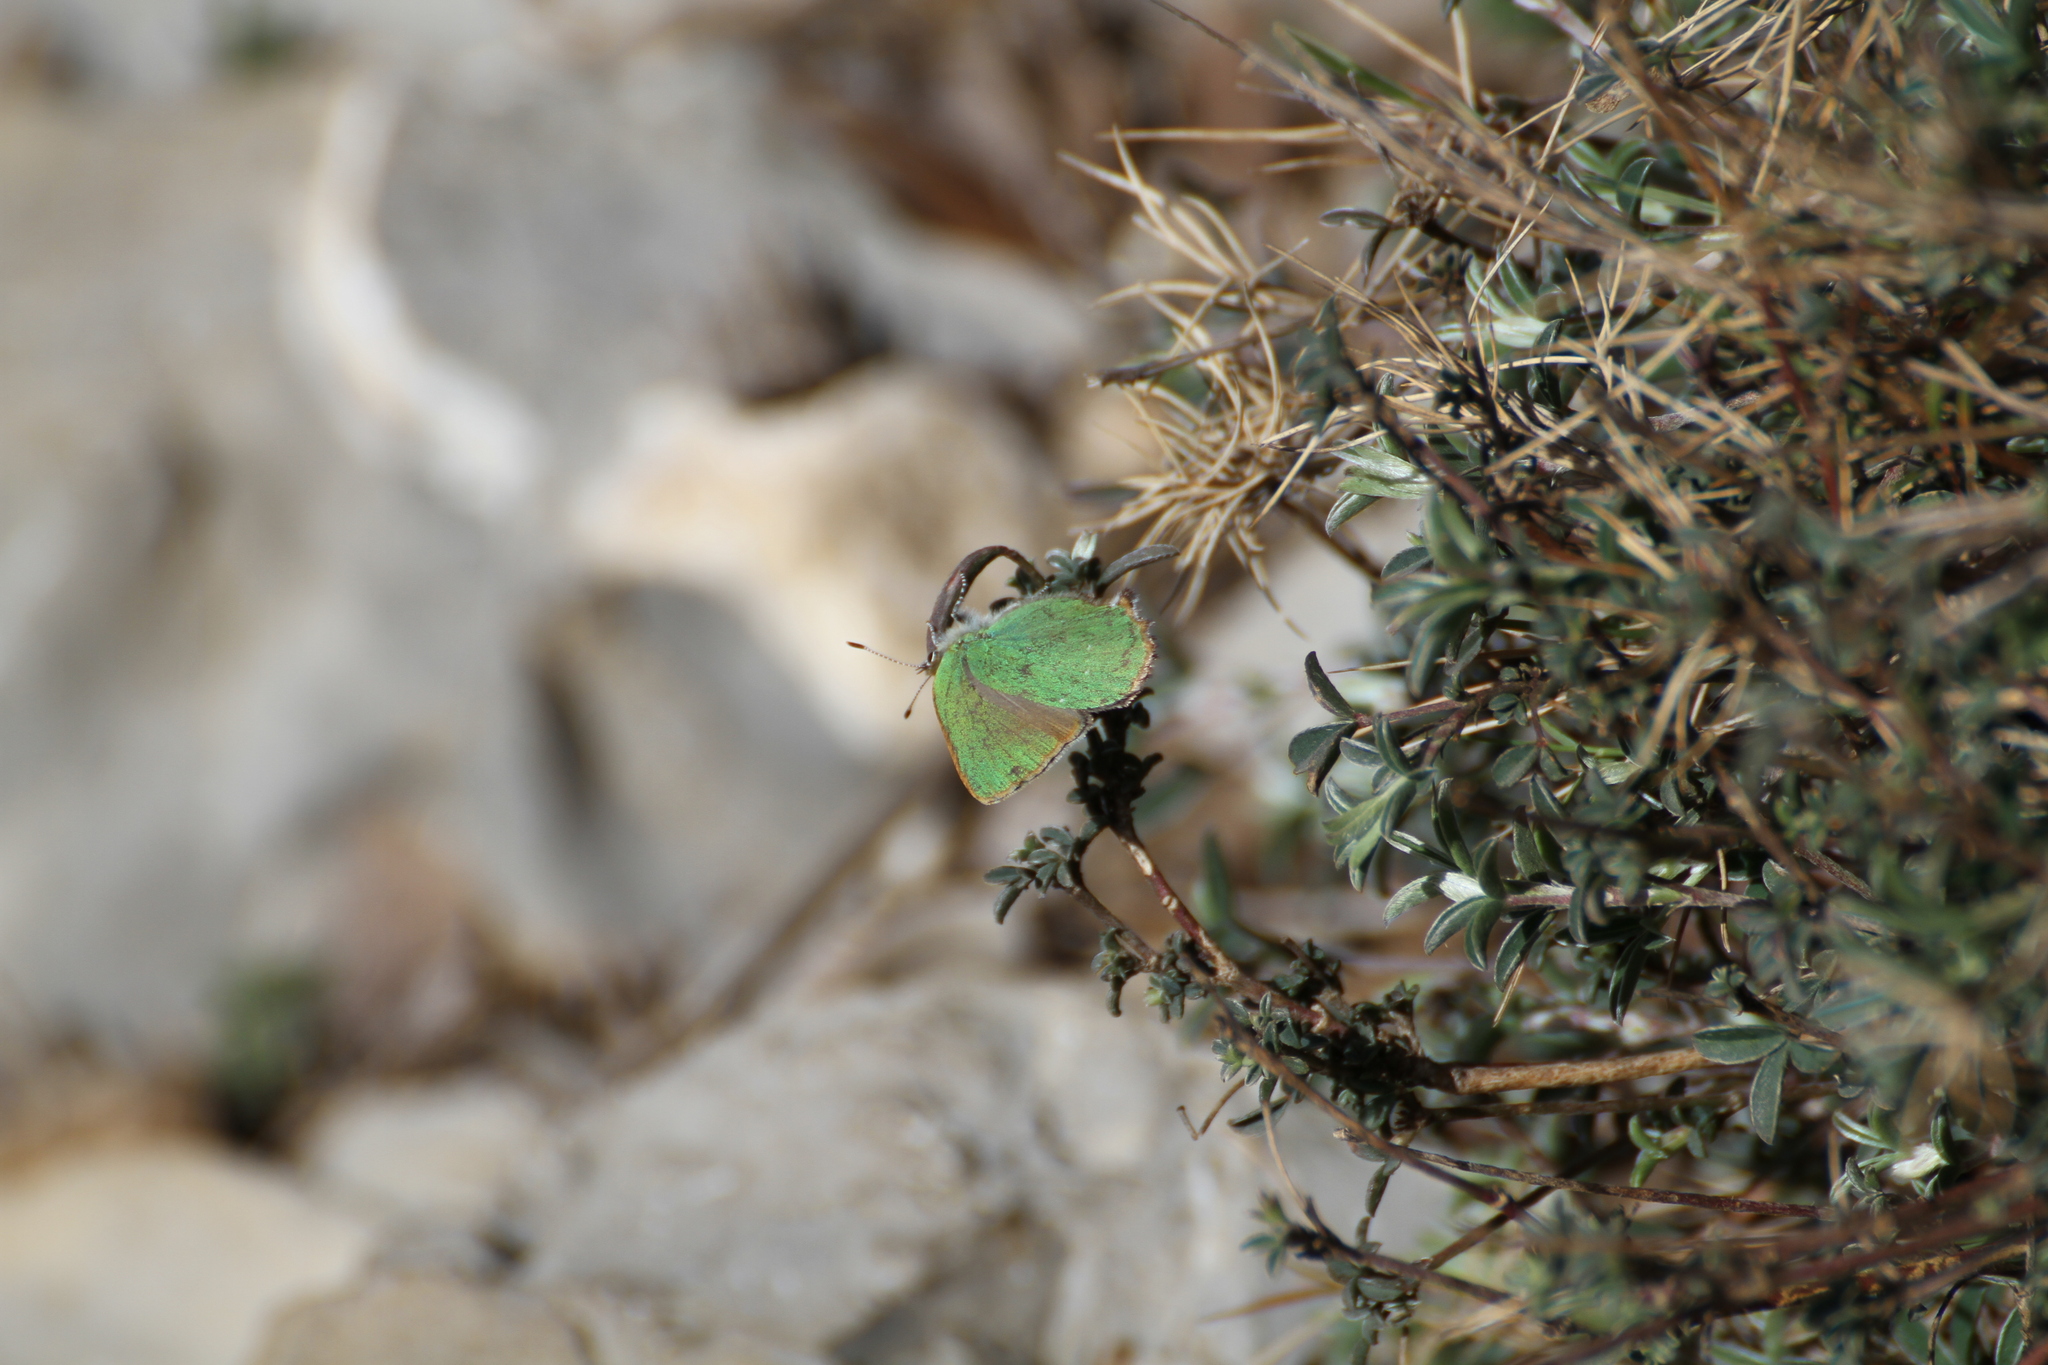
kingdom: Animalia
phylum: Arthropoda
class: Insecta
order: Lepidoptera
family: Lycaenidae
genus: Callophrys
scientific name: Callophrys rubi
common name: Green hairstreak
